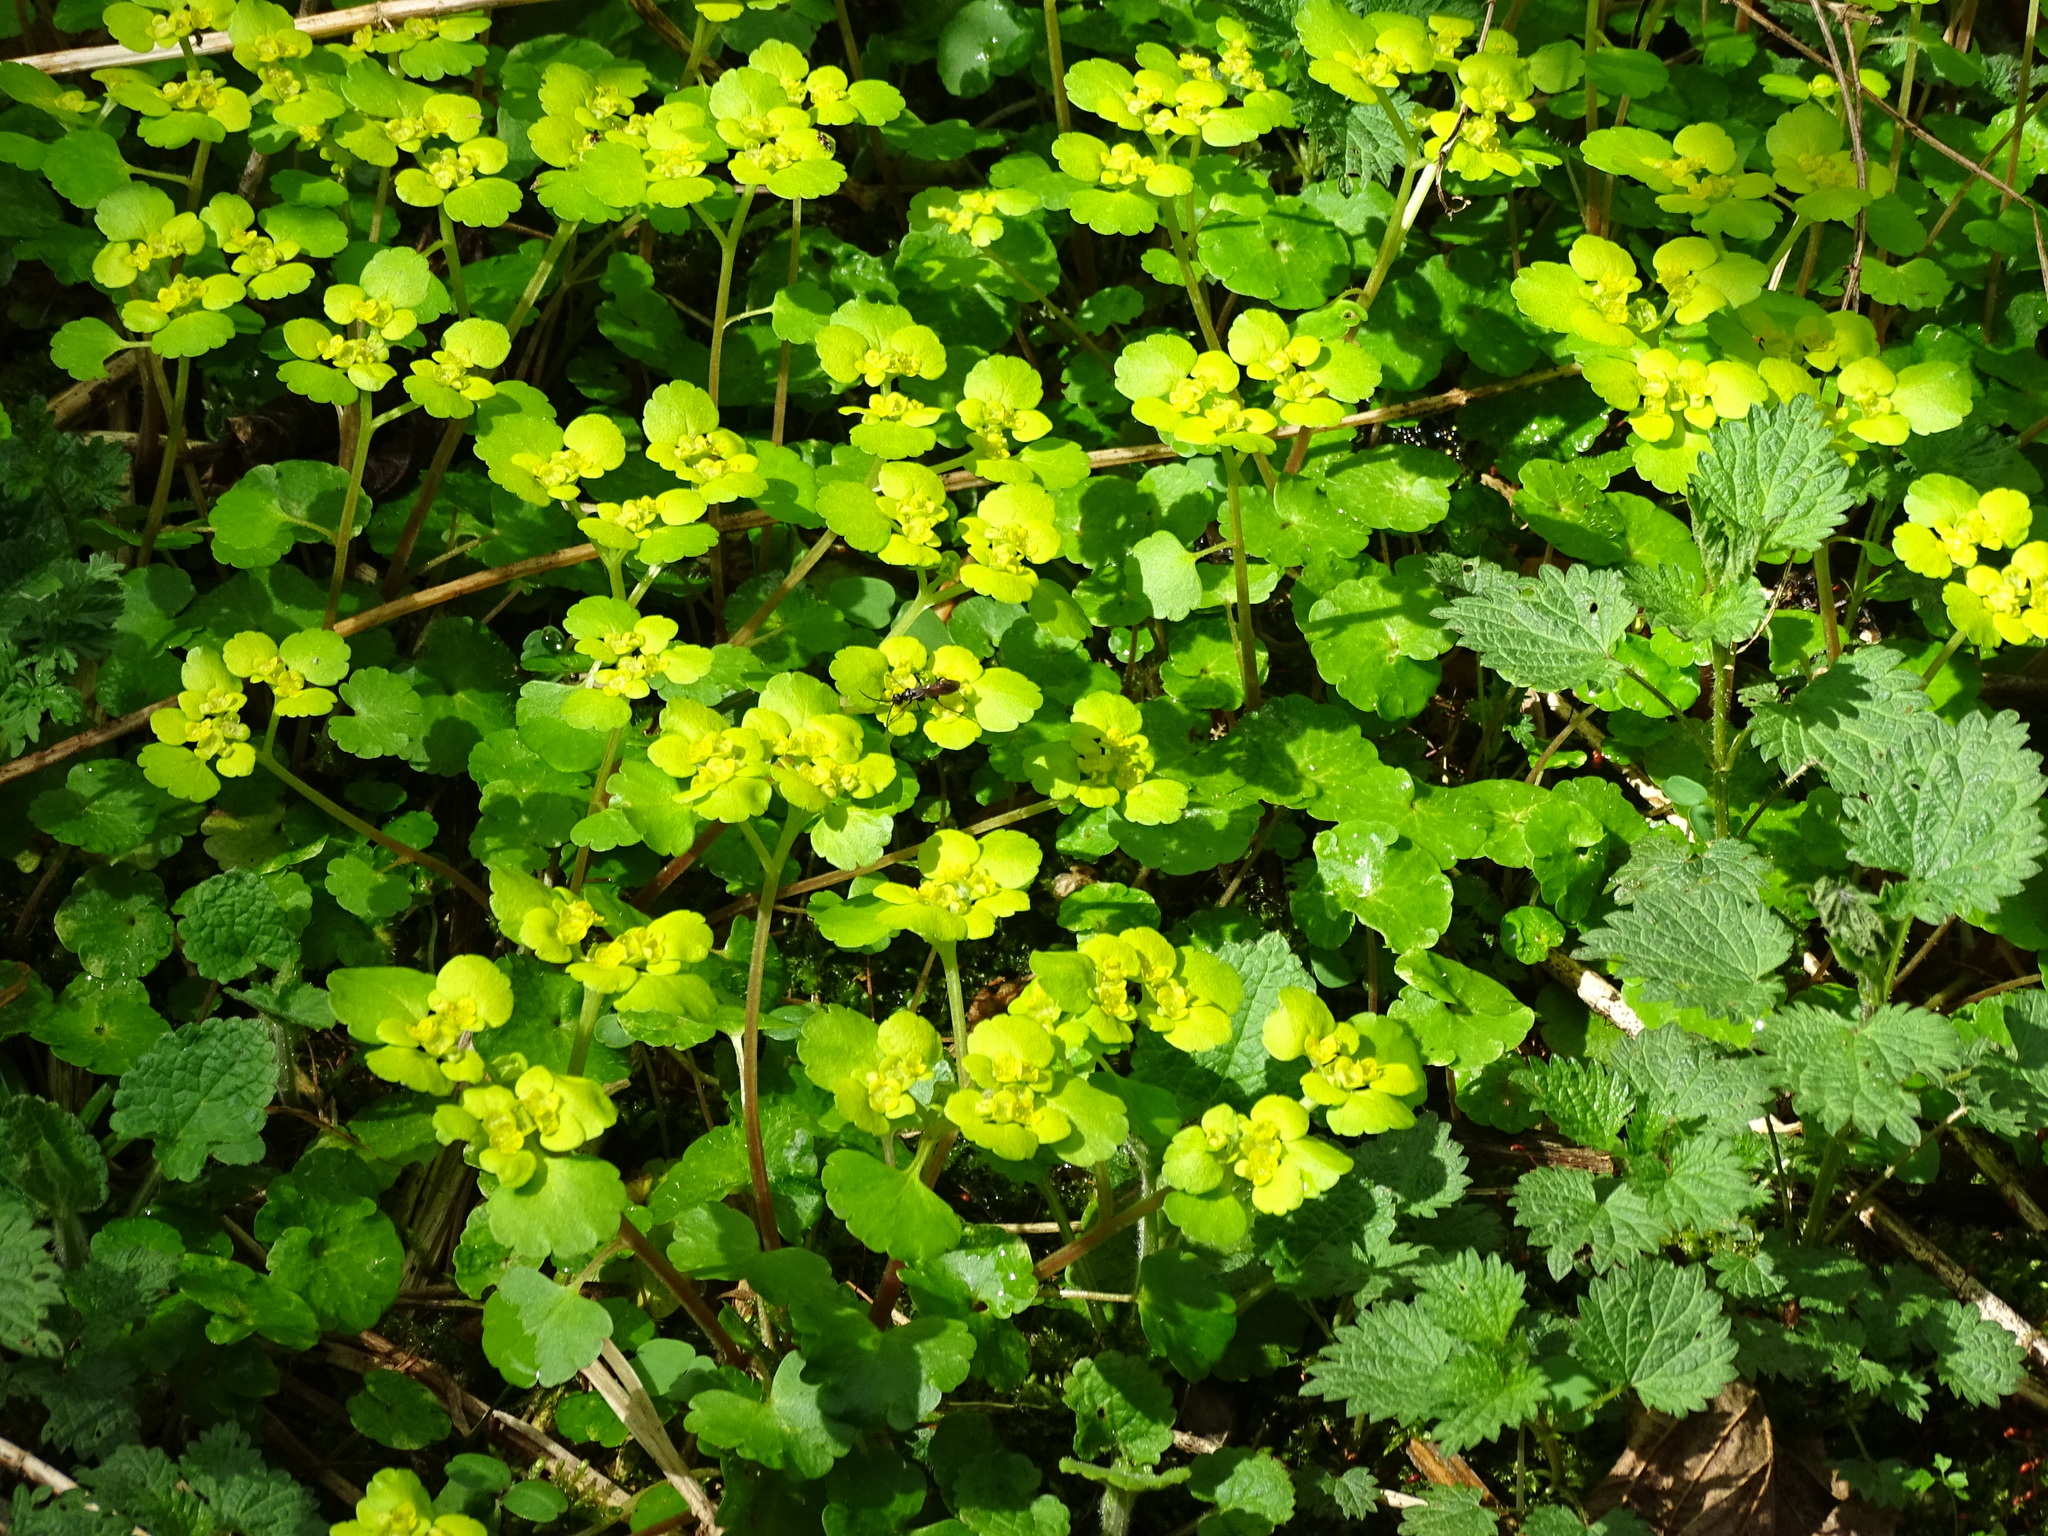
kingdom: Plantae
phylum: Tracheophyta
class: Magnoliopsida
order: Saxifragales
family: Saxifragaceae
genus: Chrysosplenium
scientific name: Chrysosplenium alternifolium
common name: Alternate-leaved golden-saxifrage
